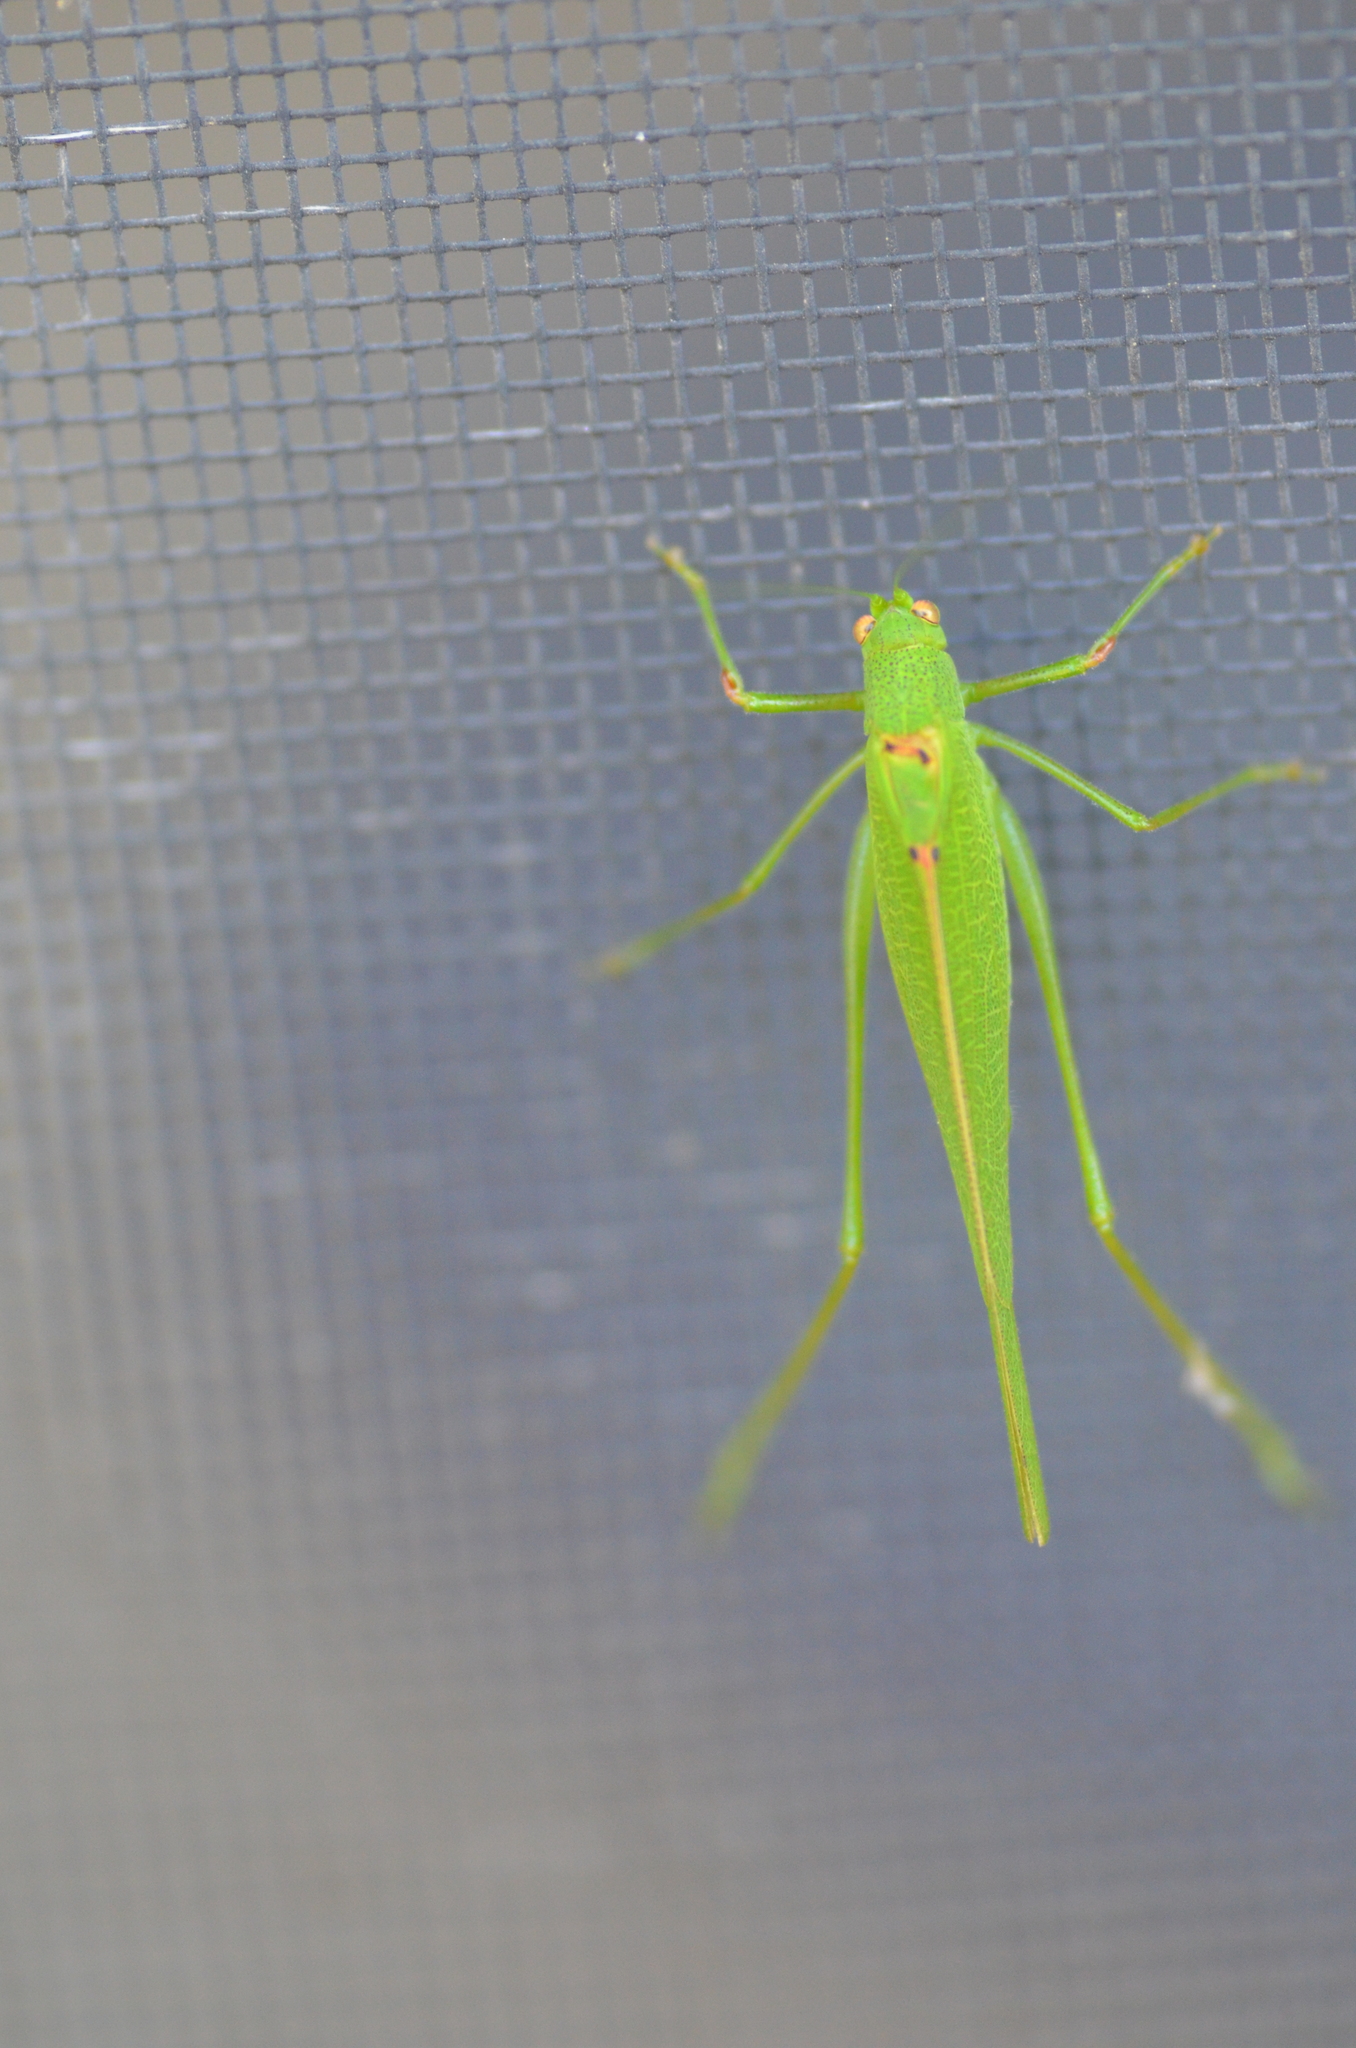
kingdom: Animalia
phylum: Arthropoda
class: Insecta
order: Orthoptera
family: Tettigoniidae
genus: Phaneroptera
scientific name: Phaneroptera nana
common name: Southern sickle bush-cricket
